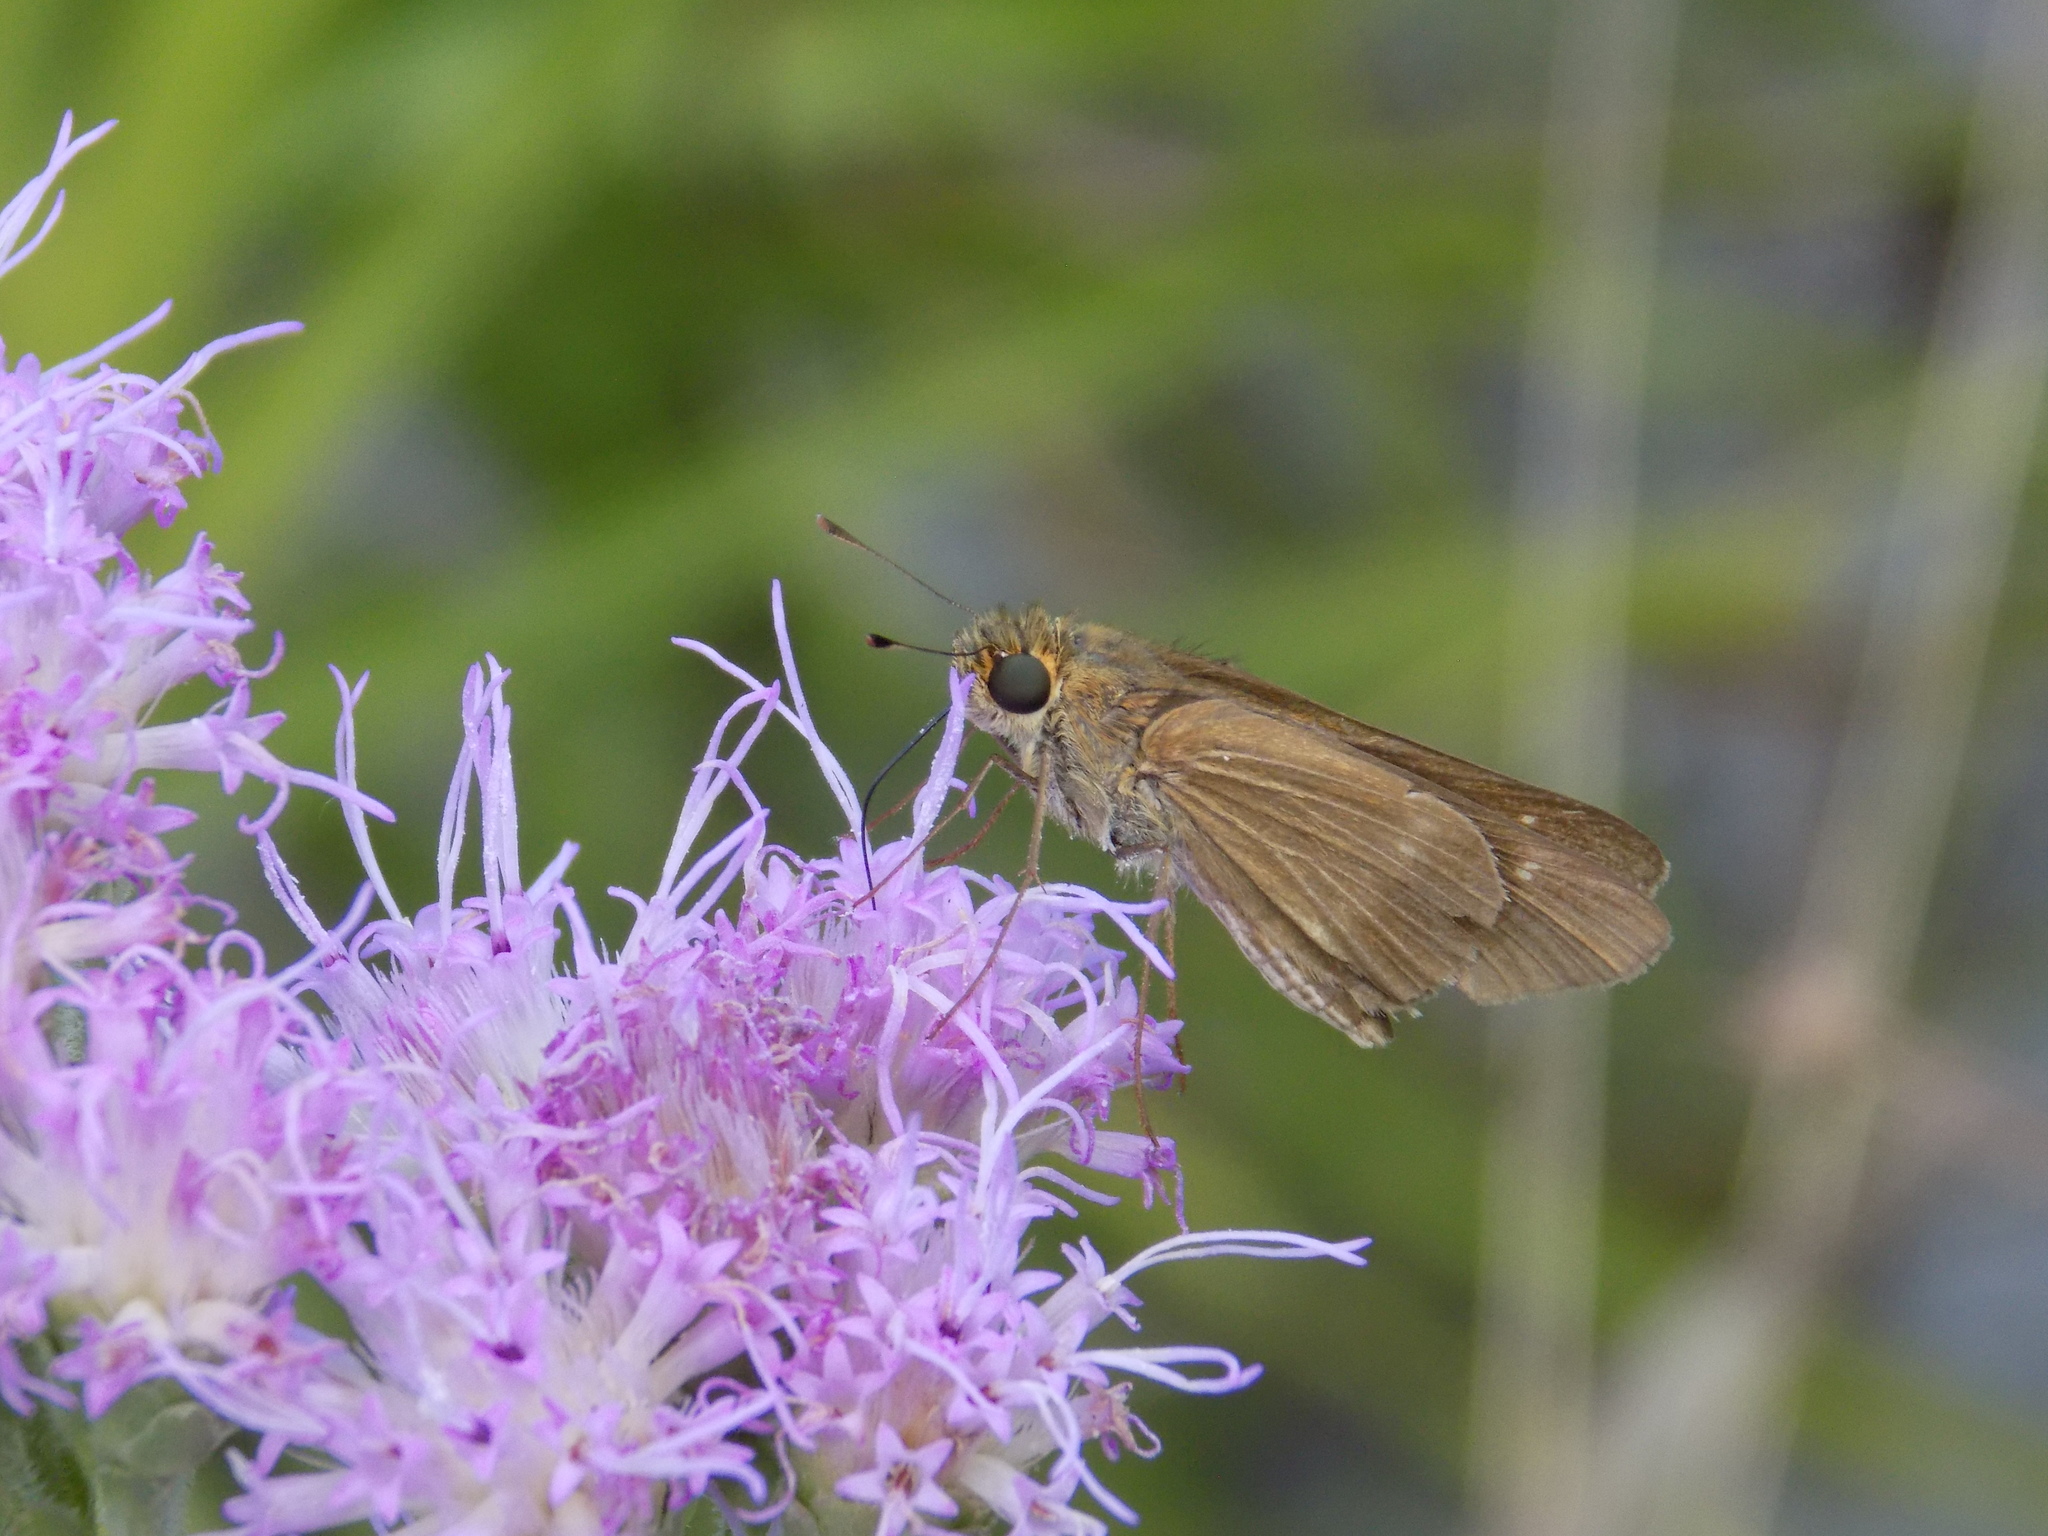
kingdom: Animalia
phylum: Arthropoda
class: Insecta
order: Lepidoptera
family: Hesperiidae
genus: Panoquina
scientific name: Panoquina ocola
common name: Ocola skipper
